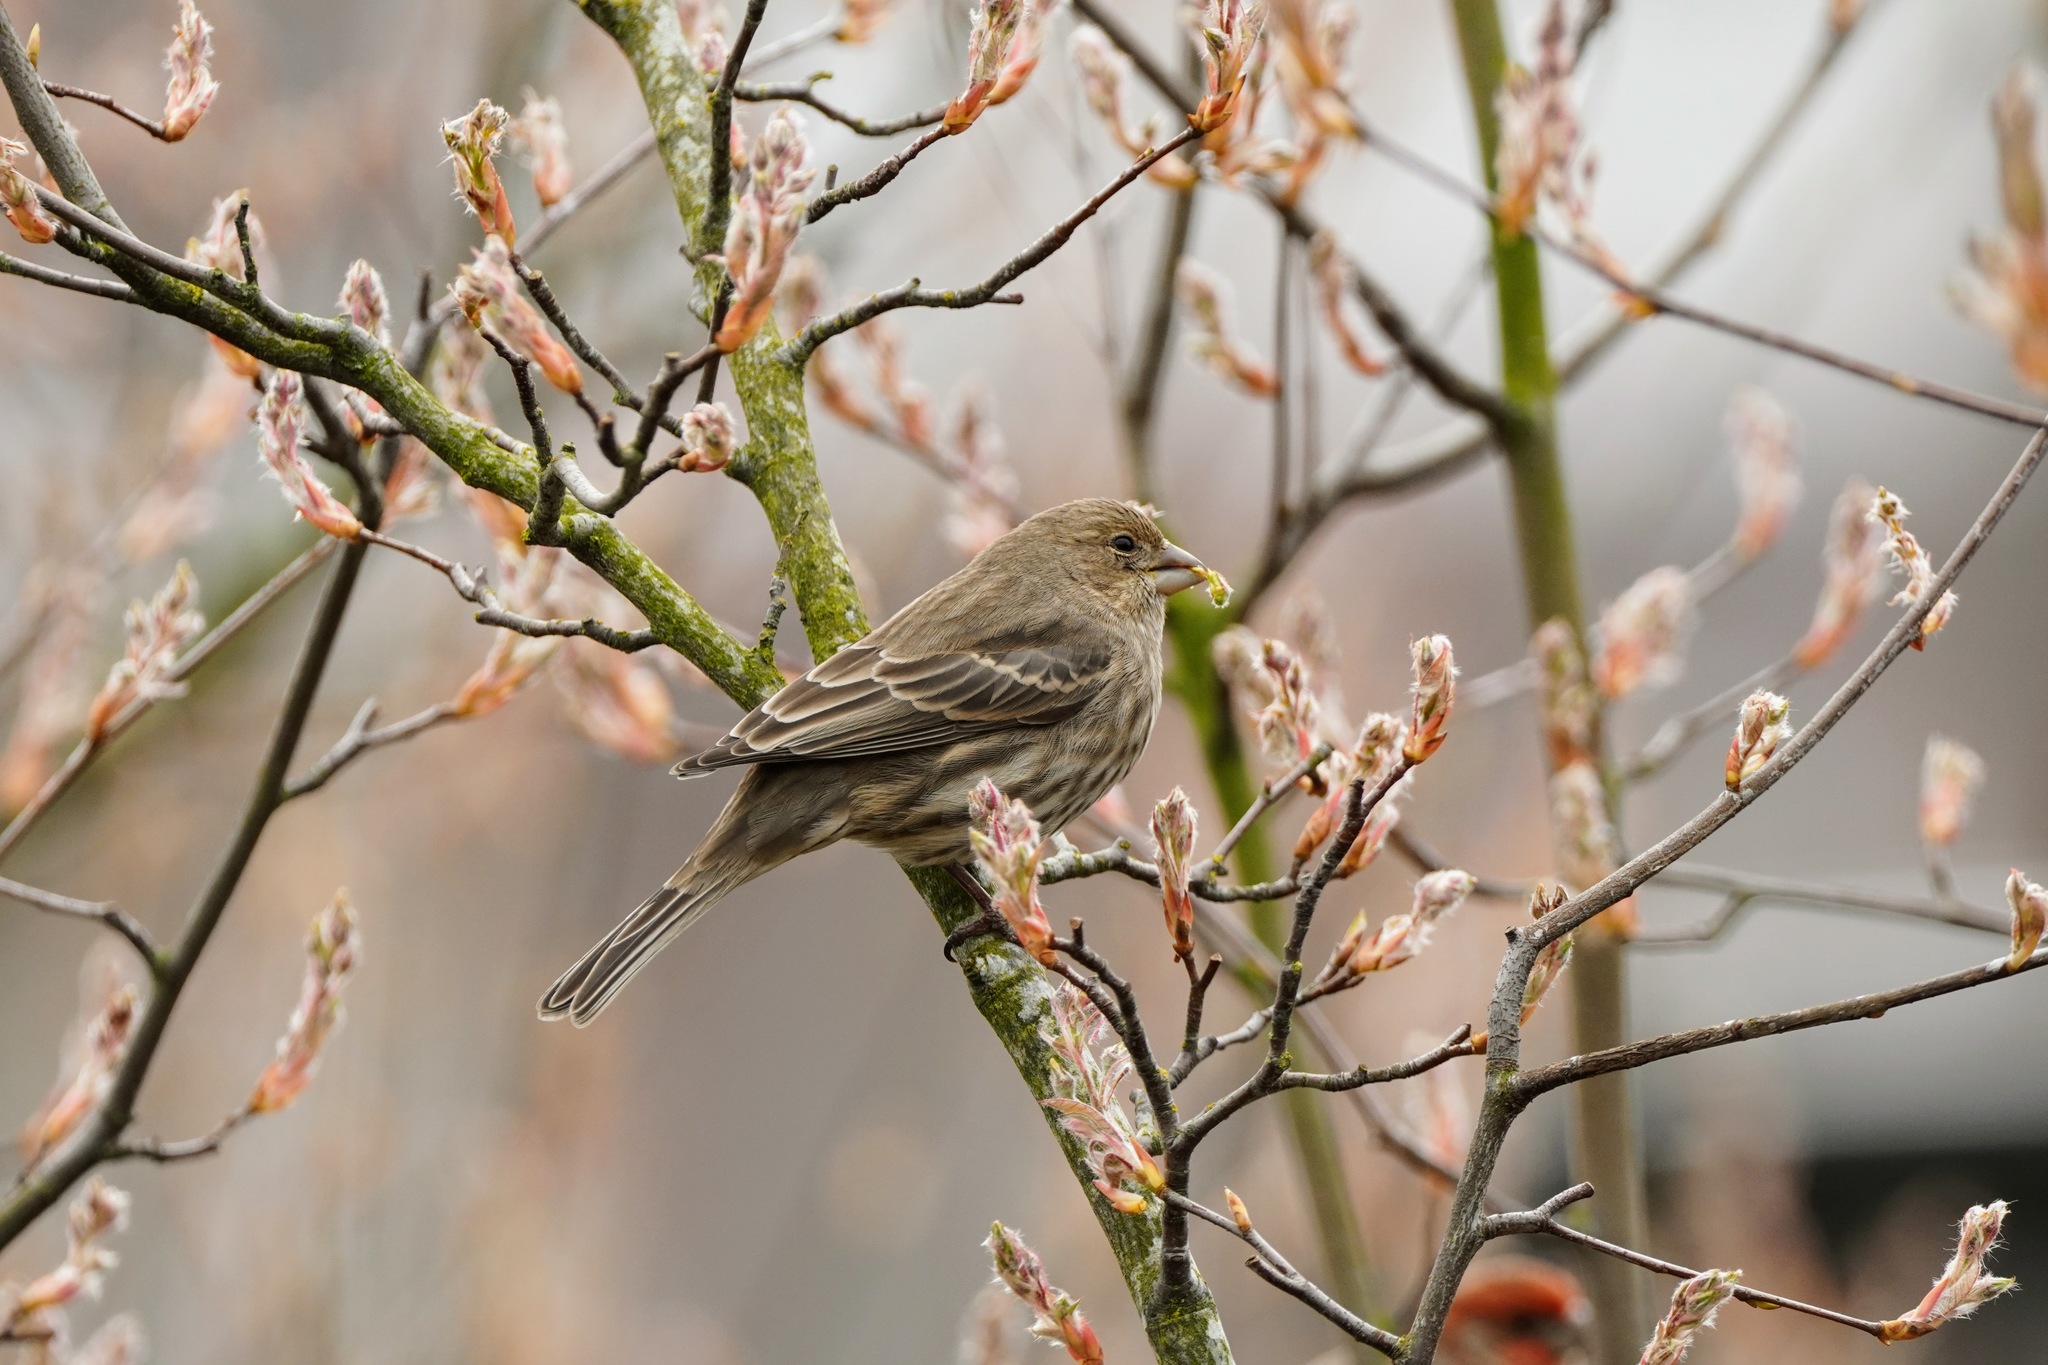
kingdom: Animalia
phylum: Chordata
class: Aves
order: Passeriformes
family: Fringillidae
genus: Haemorhous
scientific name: Haemorhous mexicanus
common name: House finch
